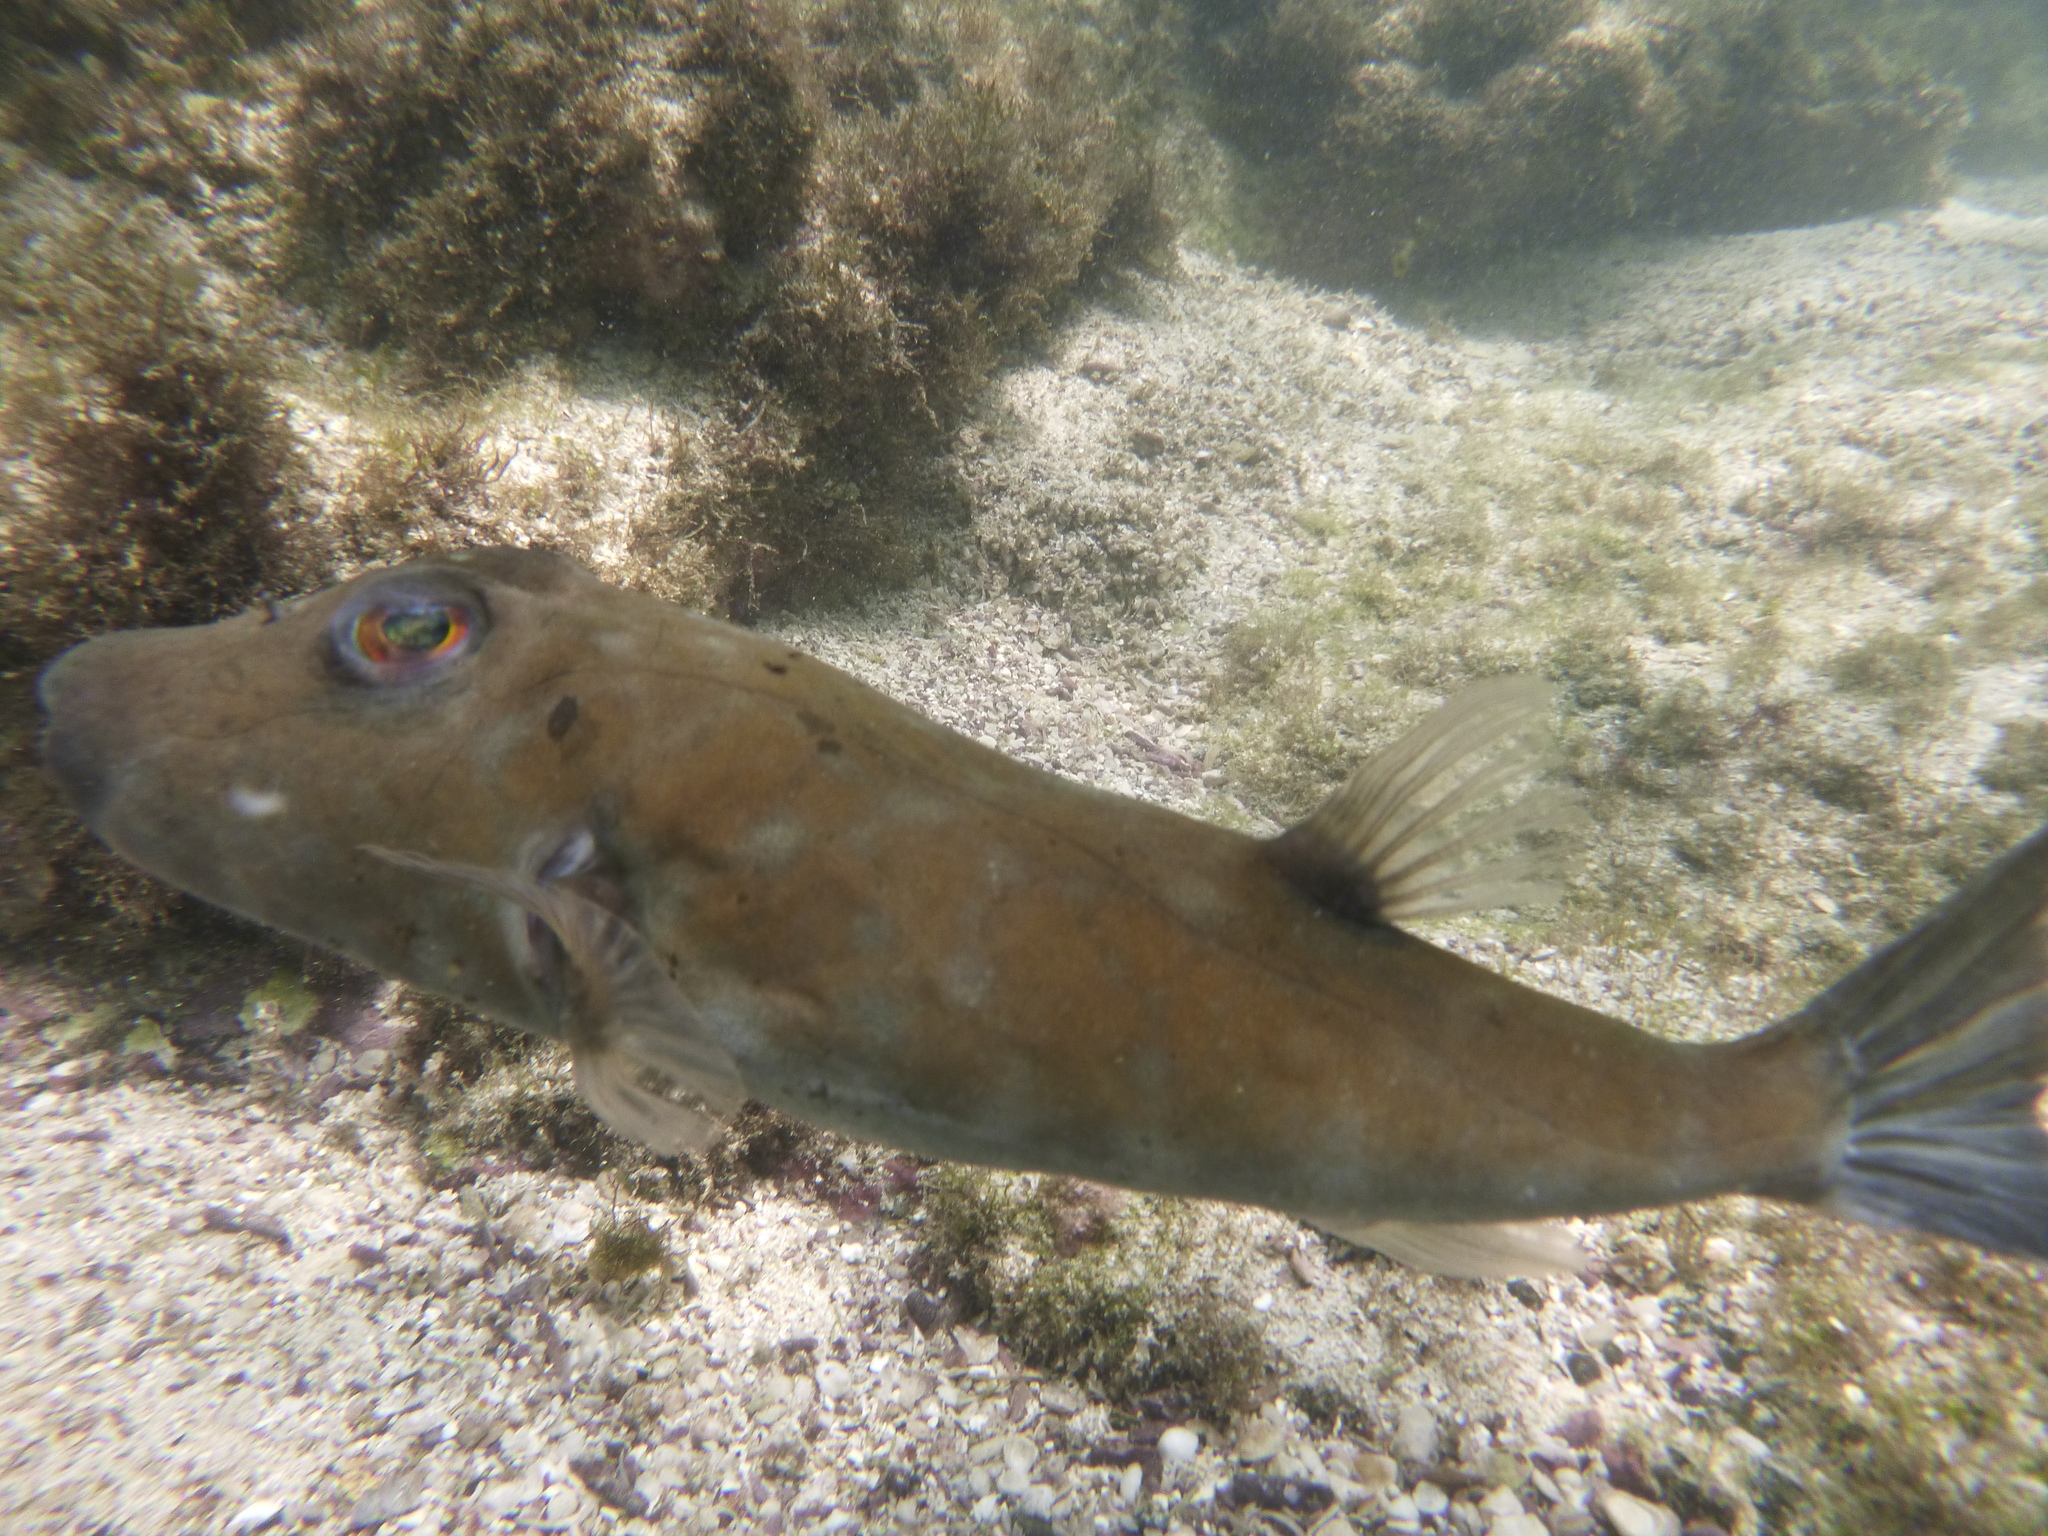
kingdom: Animalia
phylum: Chordata
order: Tetraodontiformes
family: Tetraodontidae
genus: Sphoeroides
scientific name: Sphoeroides angusticeps
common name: Narrow-headed puffer
